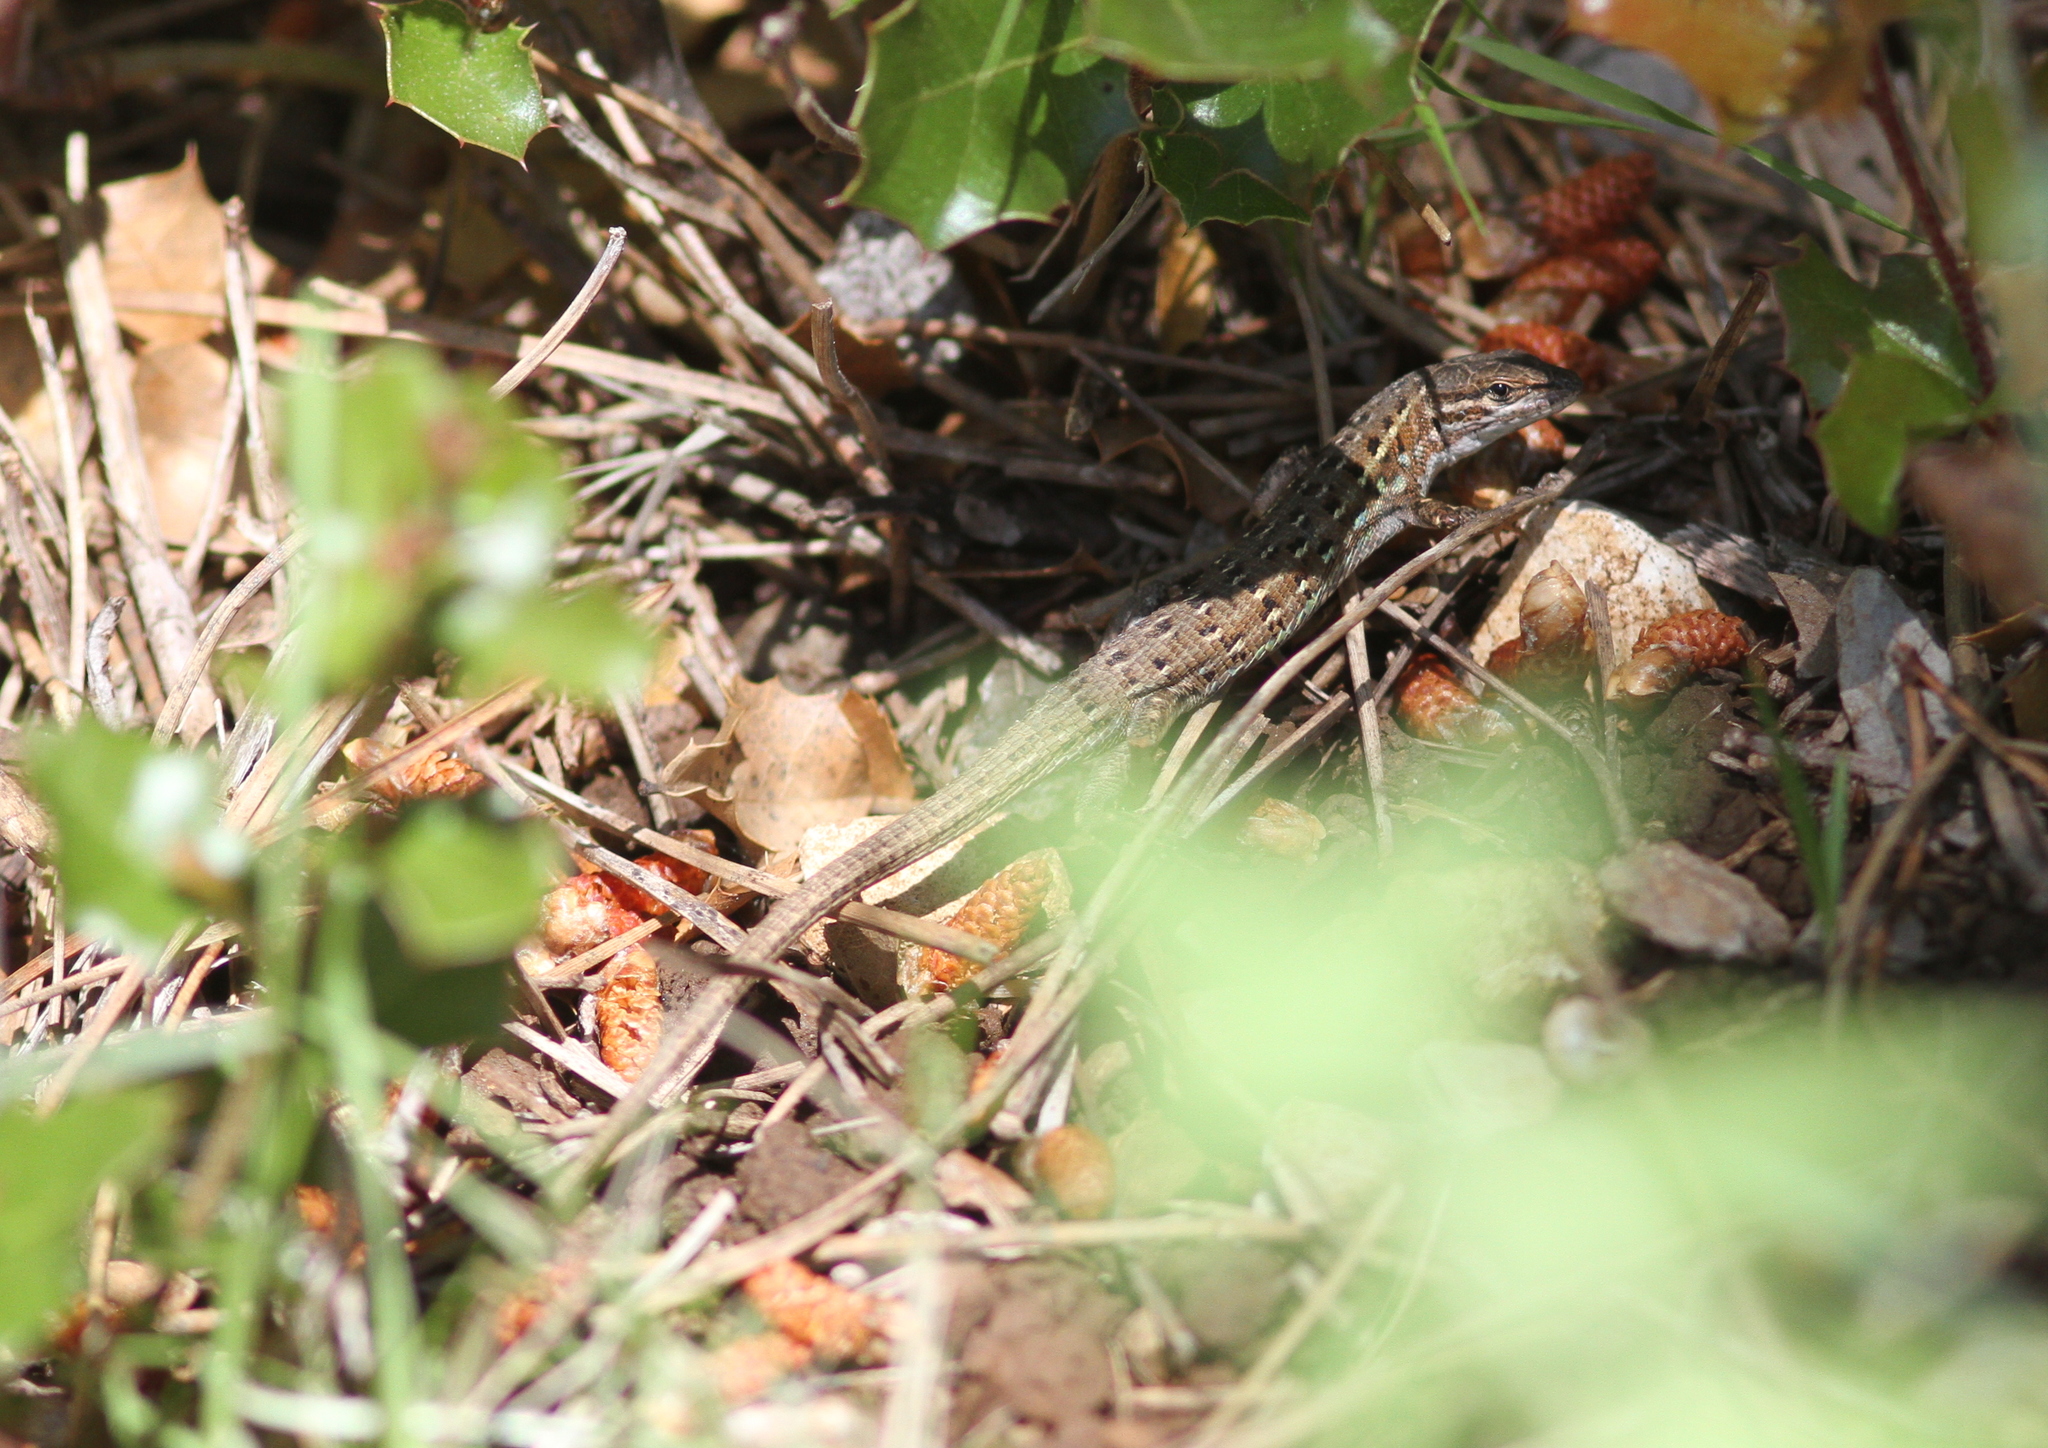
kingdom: Animalia
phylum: Chordata
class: Squamata
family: Lacertidae
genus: Psammodromus
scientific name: Psammodromus edwarsianus
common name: East iberian psammodromus
